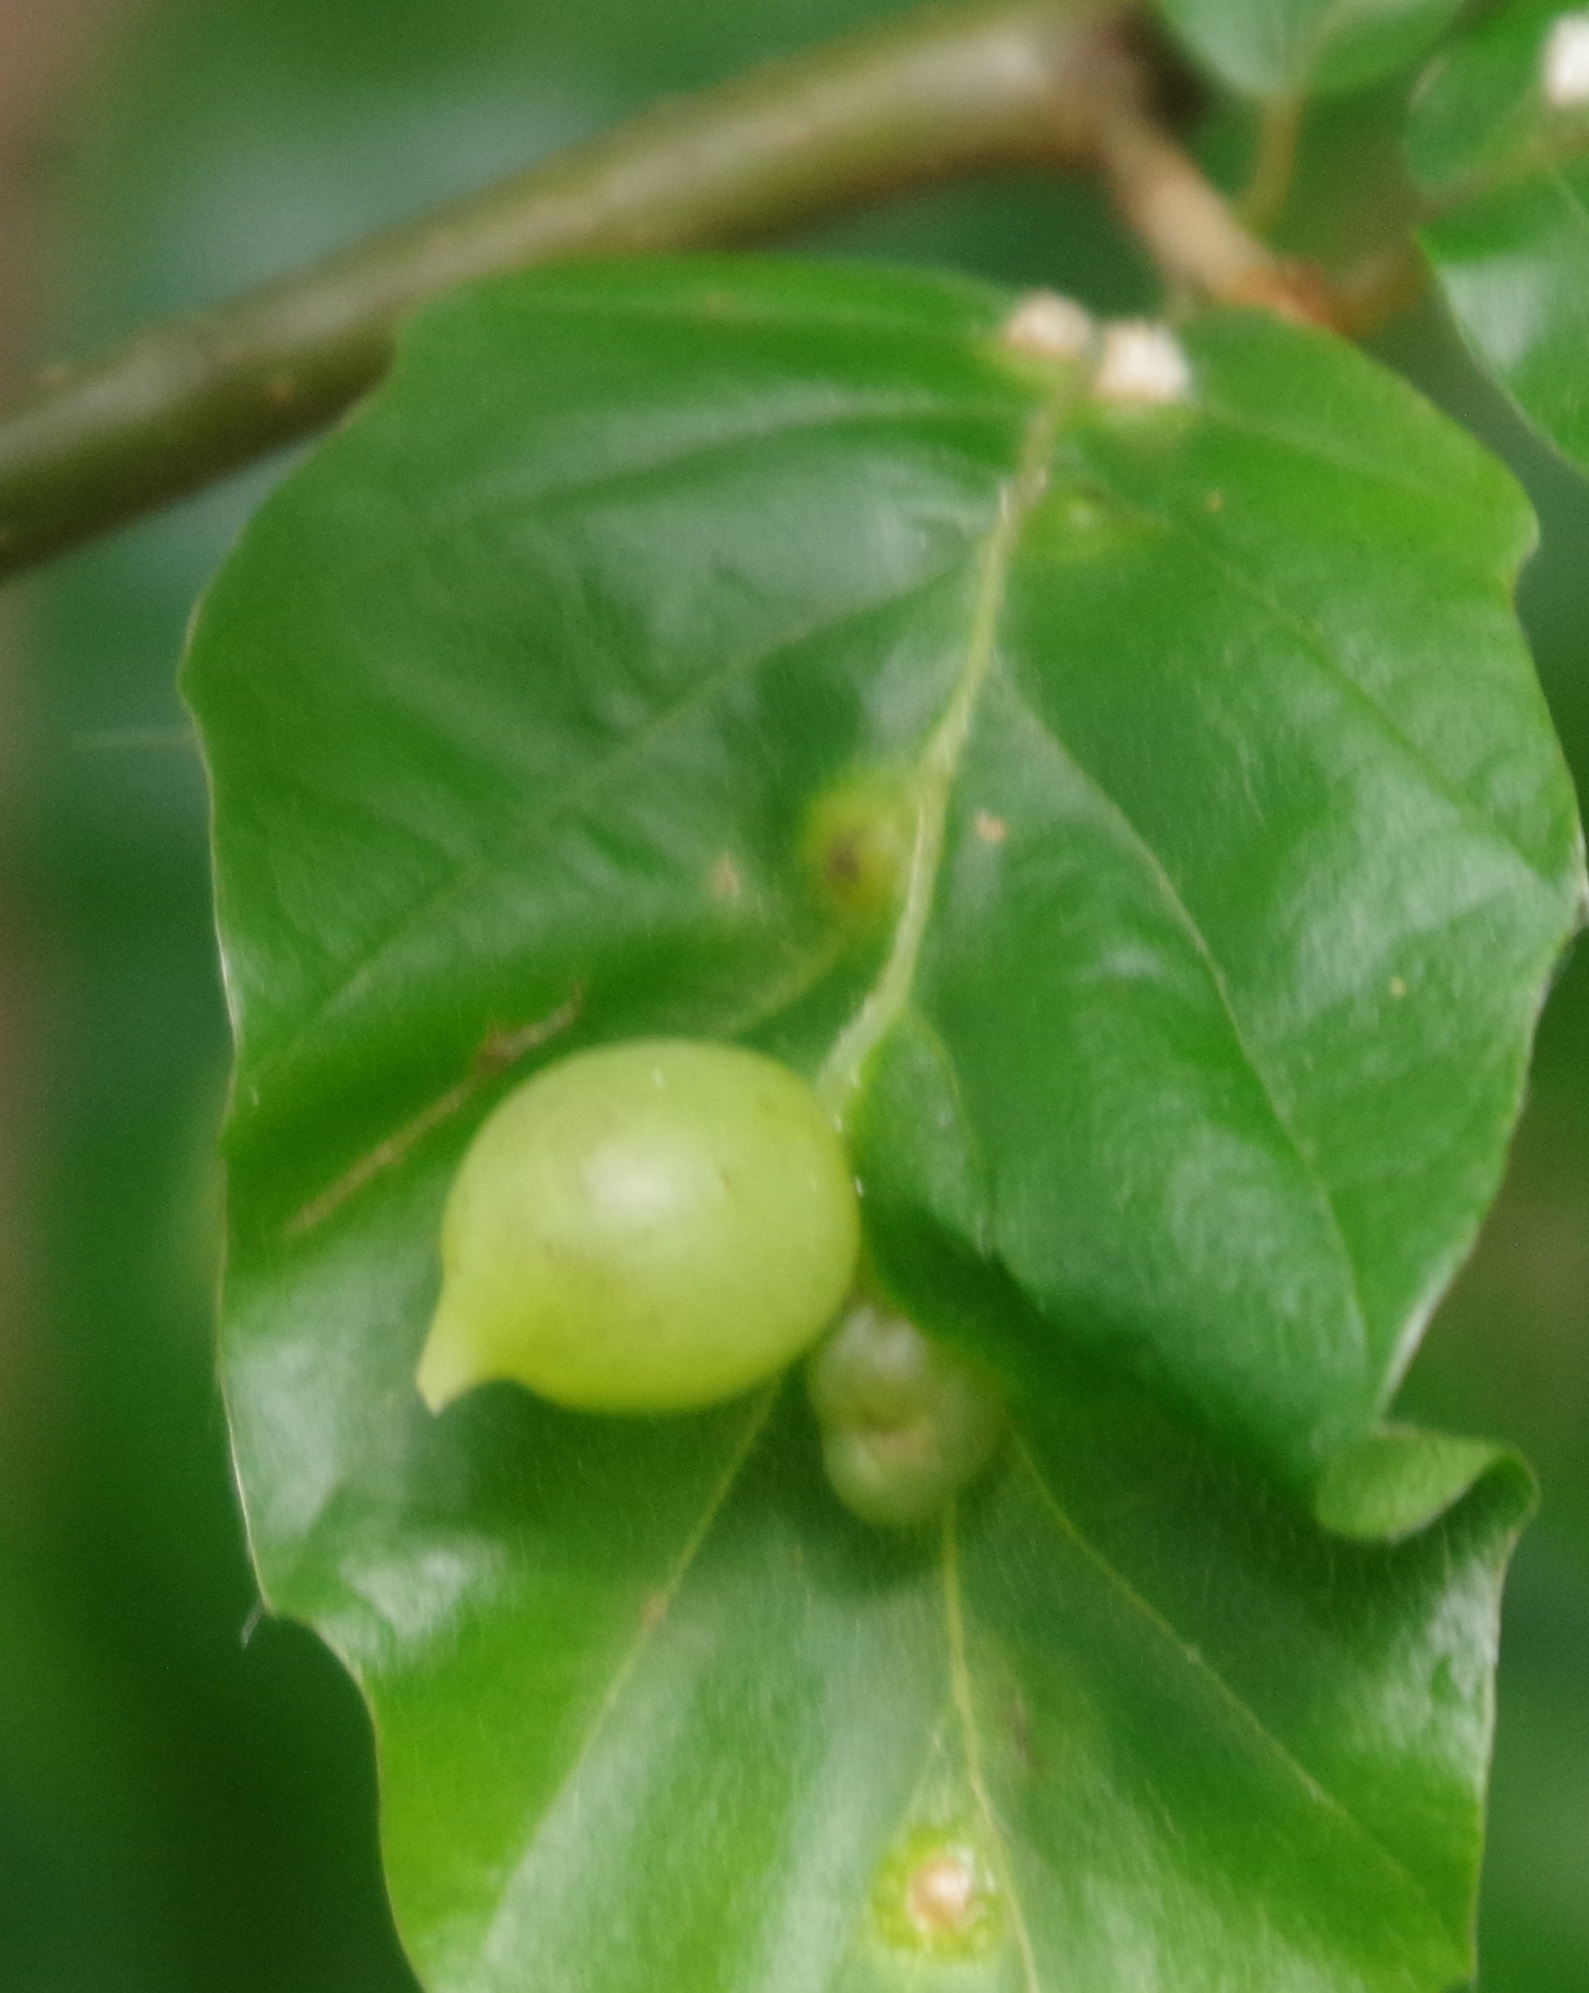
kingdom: Animalia
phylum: Arthropoda
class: Insecta
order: Diptera
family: Cecidomyiidae
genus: Mikiola
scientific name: Mikiola fagi
